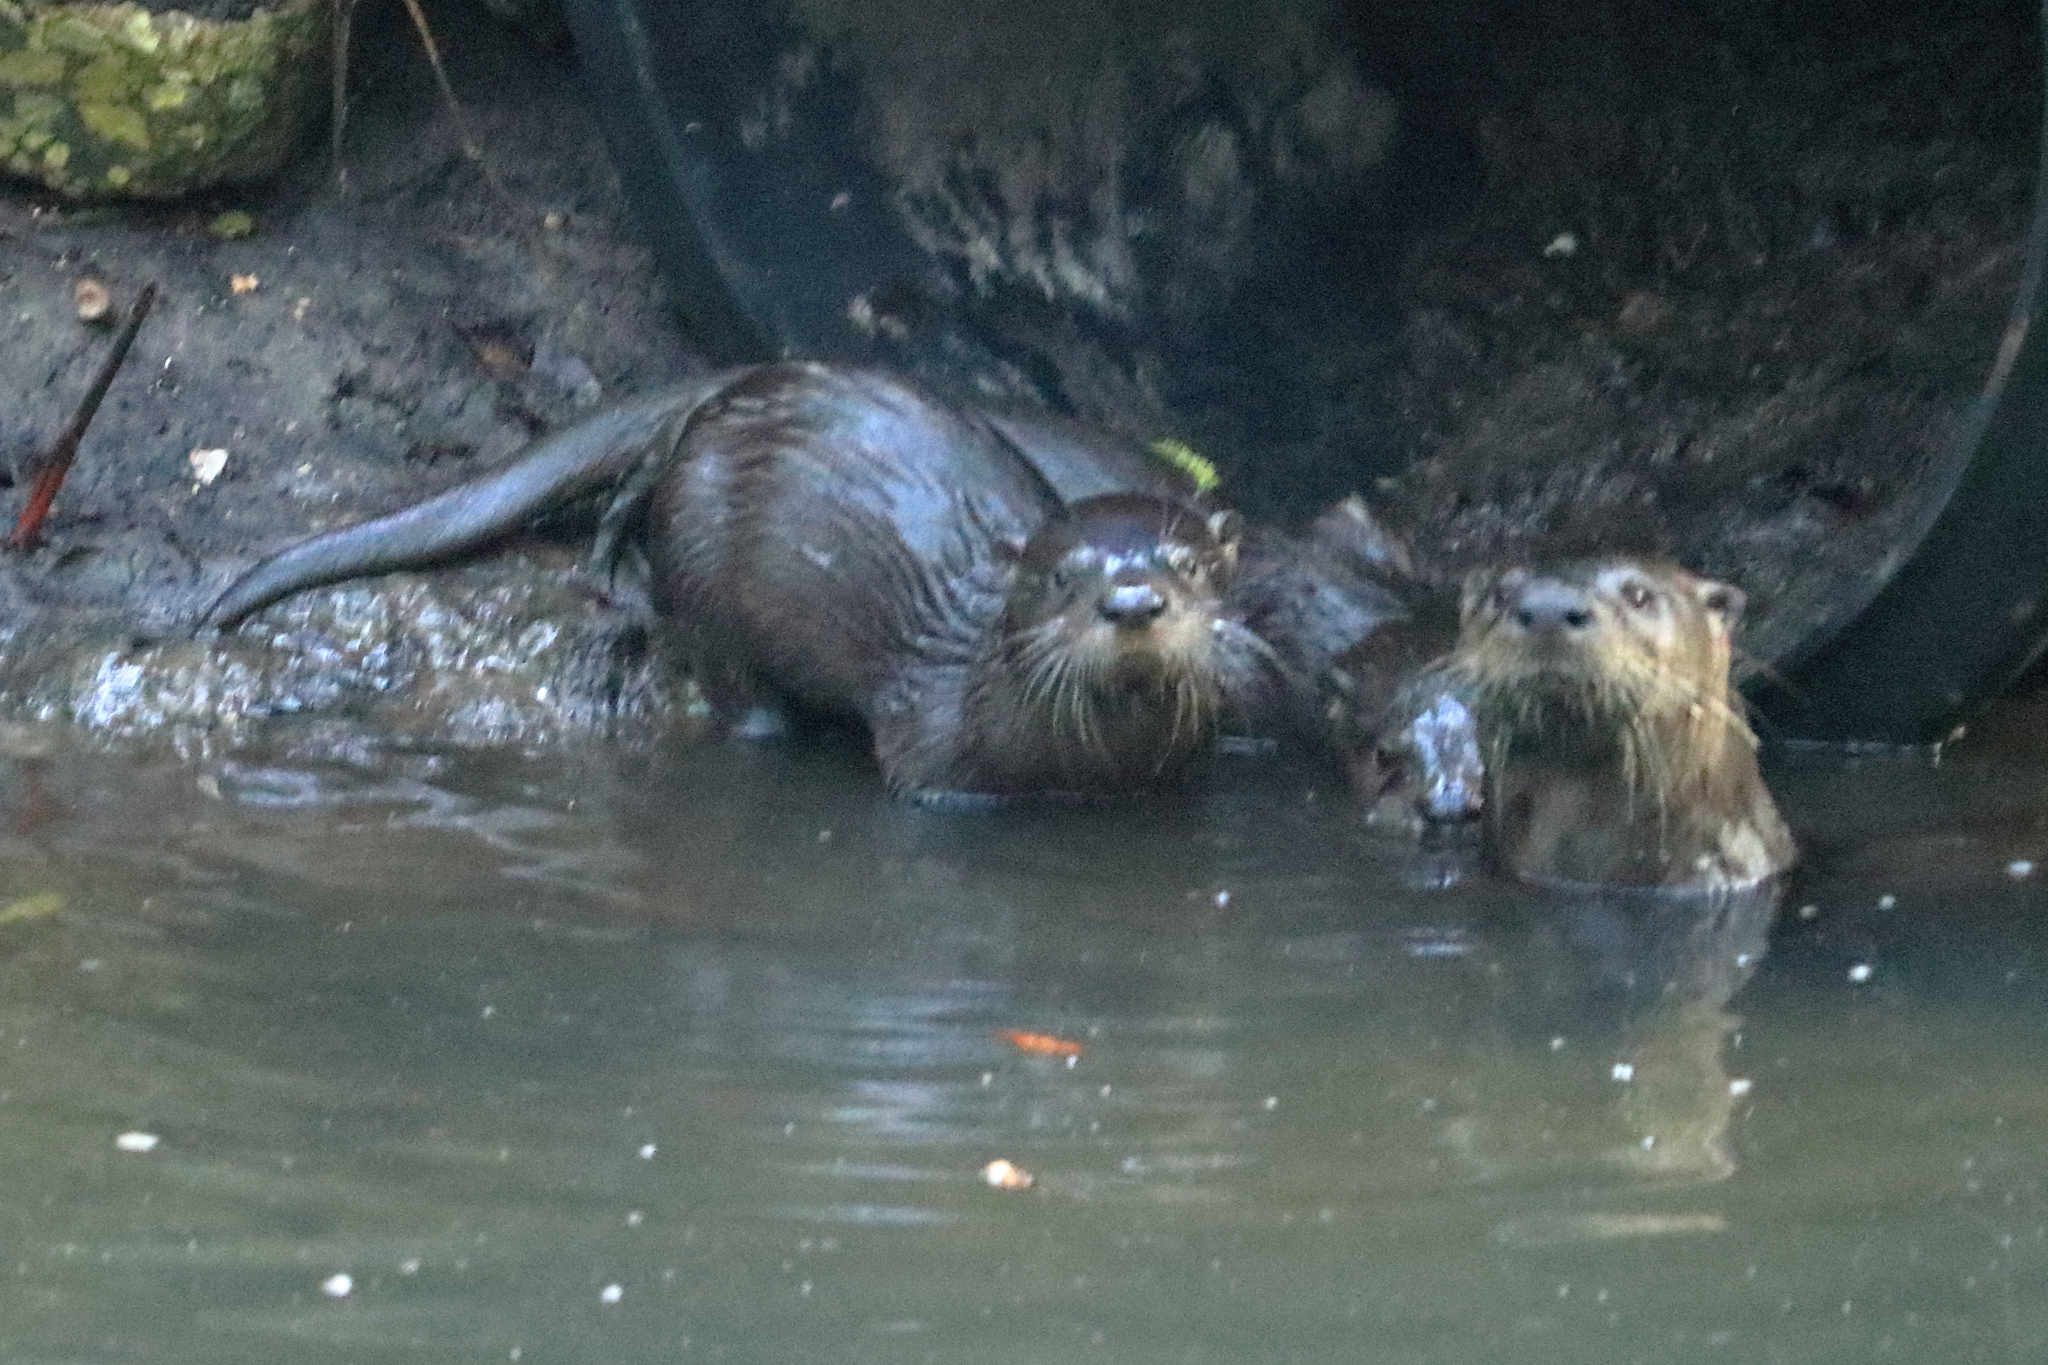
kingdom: Animalia
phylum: Chordata
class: Mammalia
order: Carnivora
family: Mustelidae
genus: Lontra
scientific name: Lontra canadensis
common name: North american river otter
